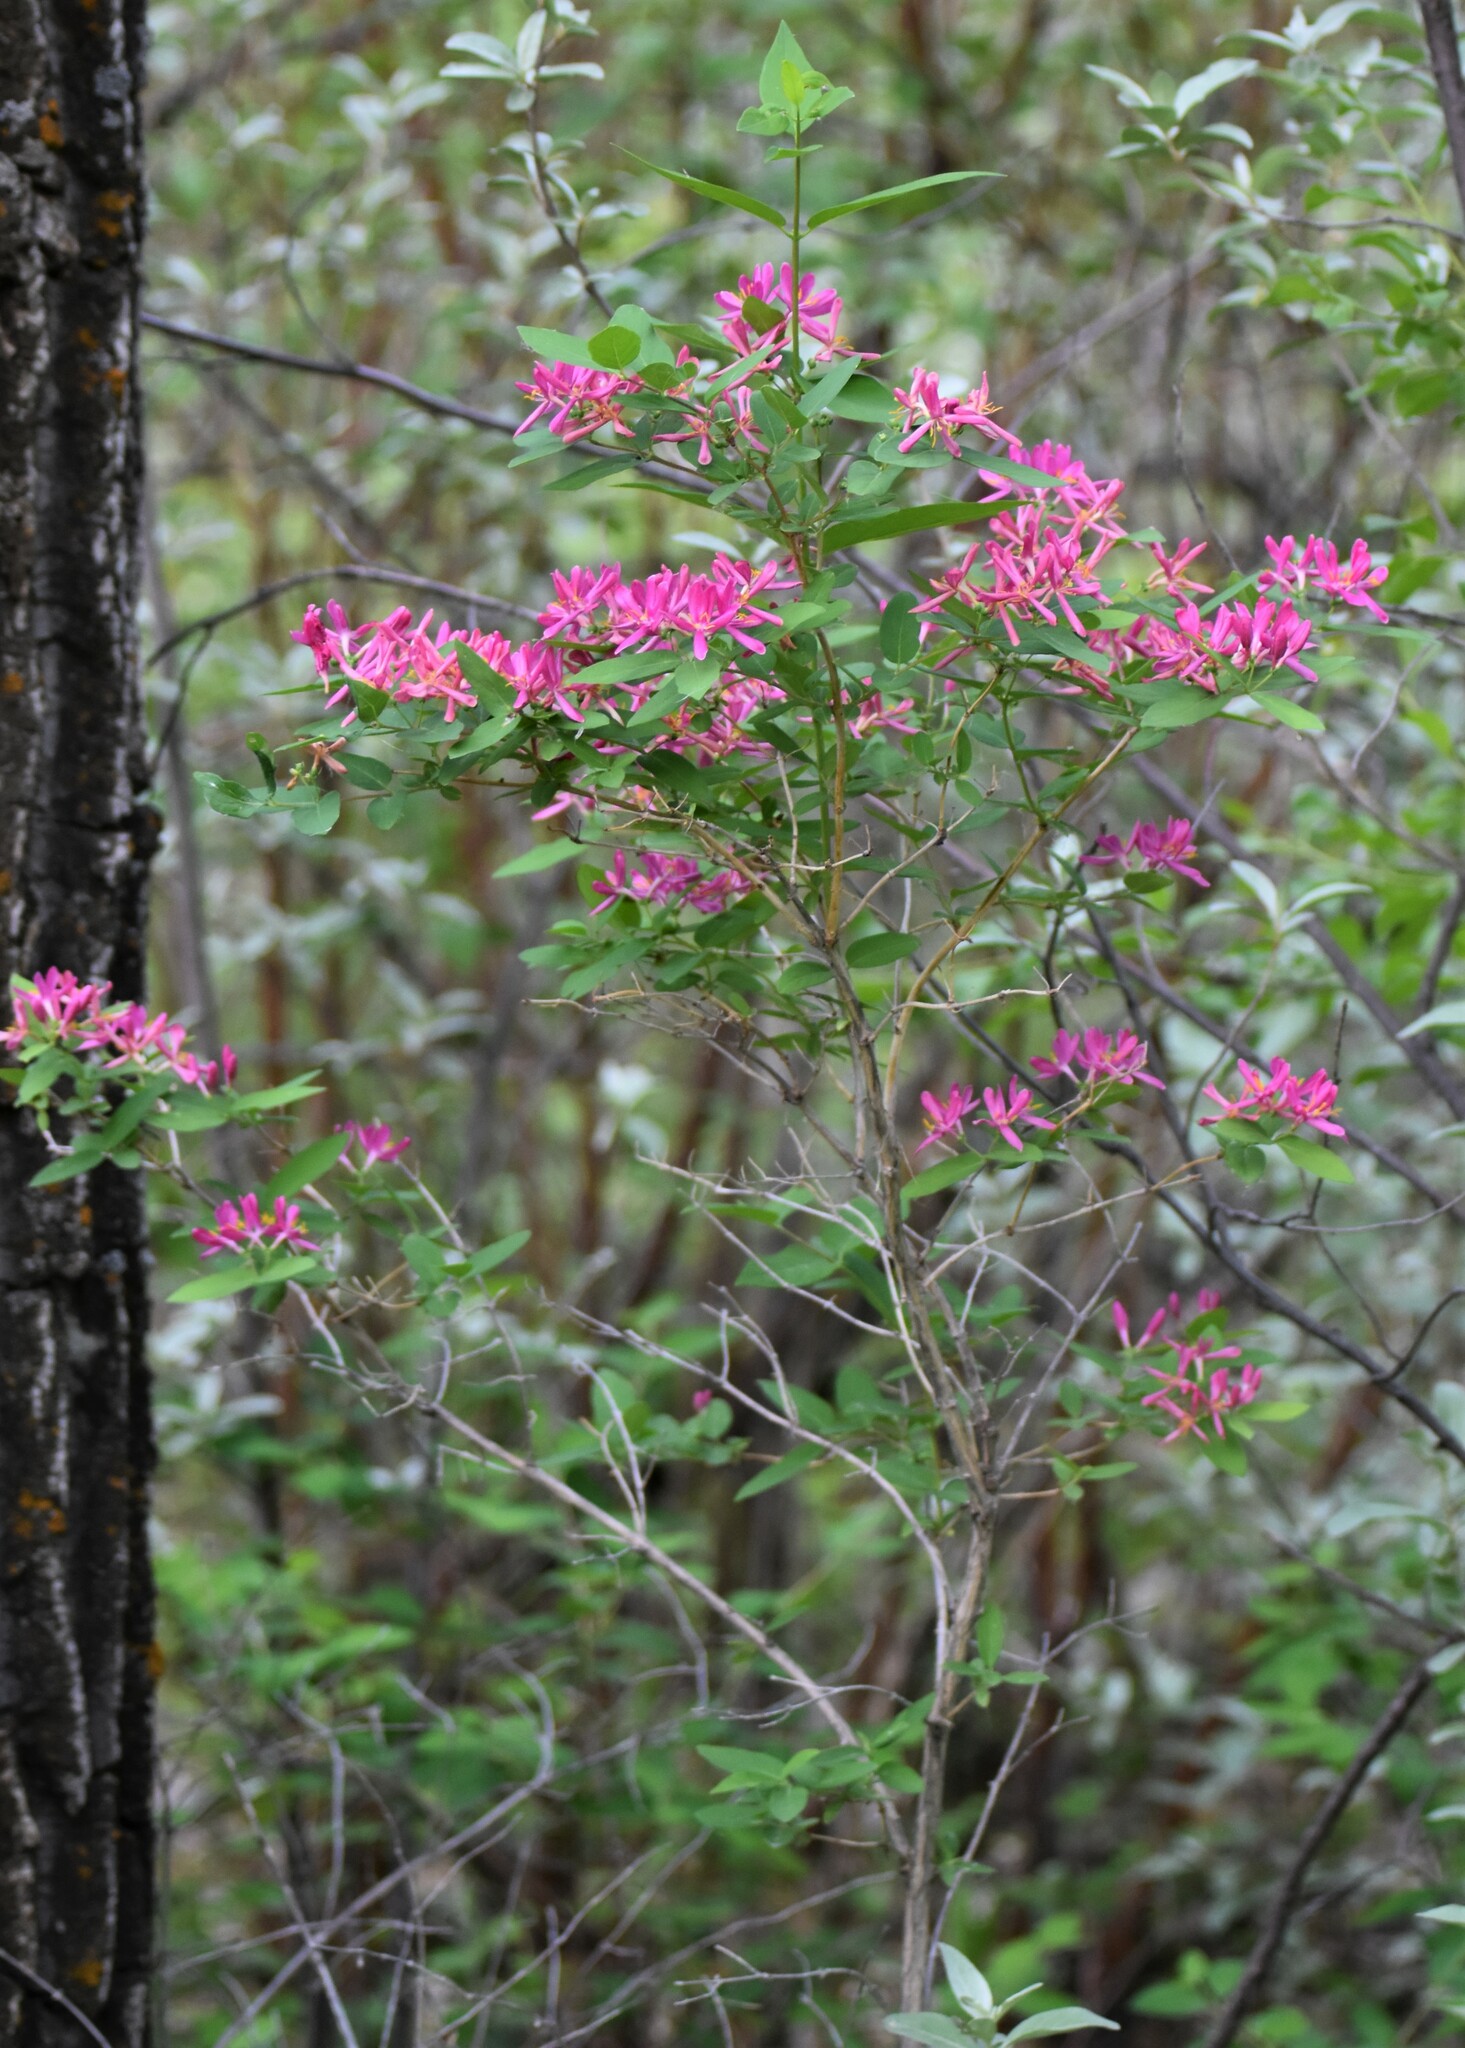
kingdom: Plantae
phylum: Tracheophyta
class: Magnoliopsida
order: Dipsacales
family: Caprifoliaceae
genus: Lonicera
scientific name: Lonicera tatarica
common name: Tatarian honeysuckle
